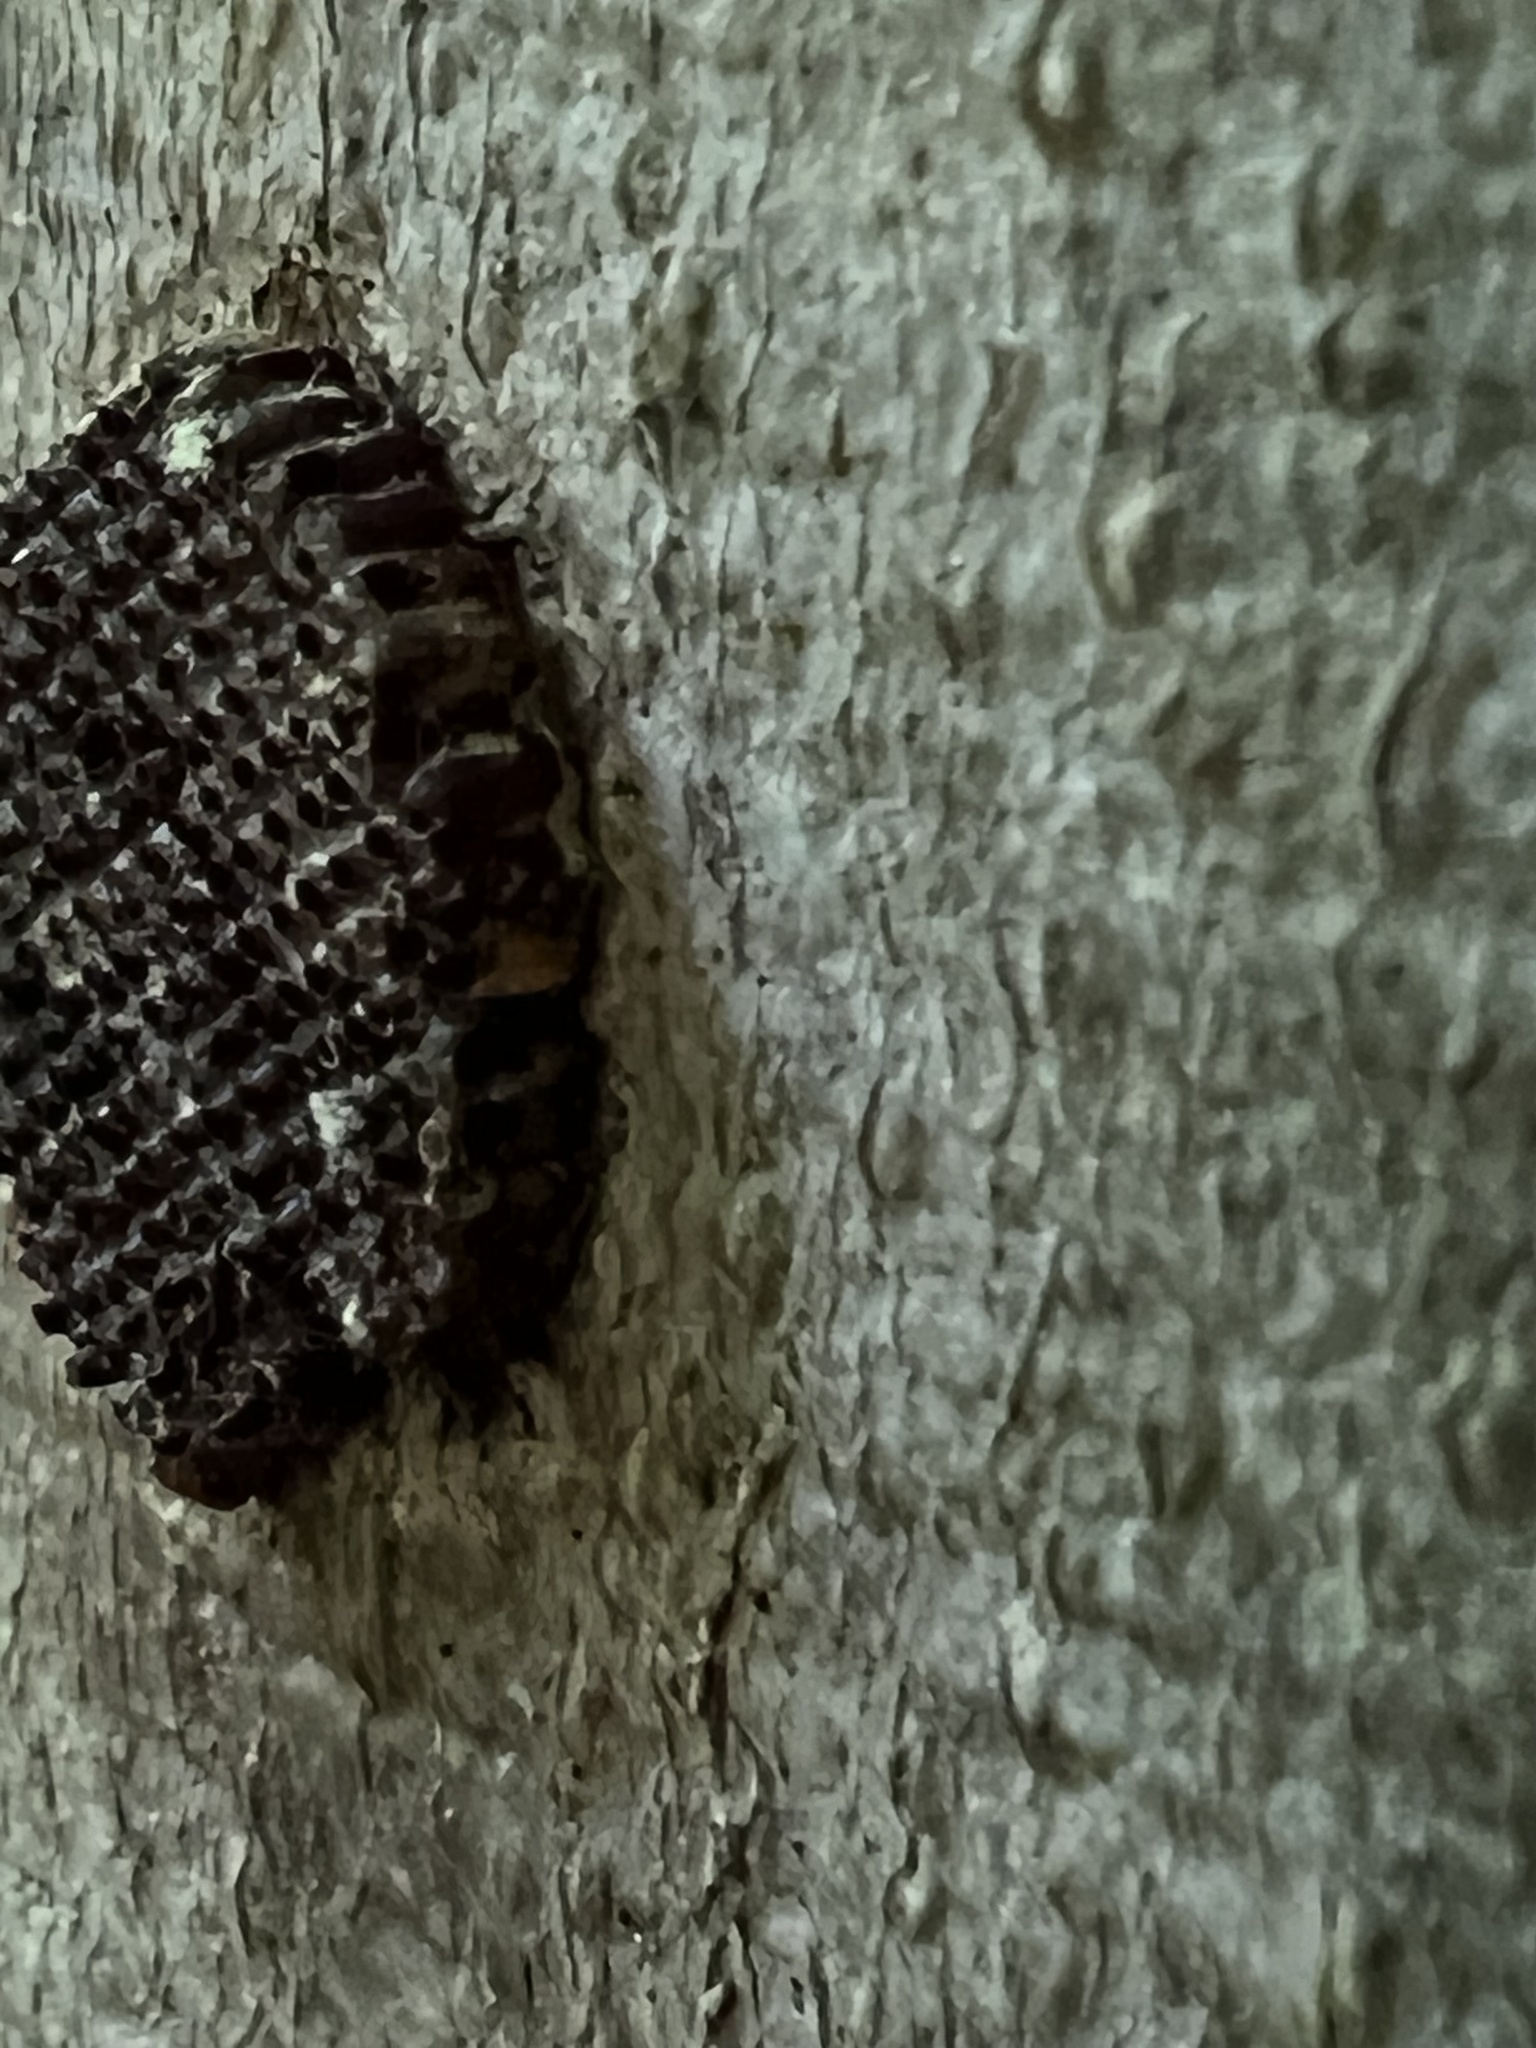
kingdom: Animalia
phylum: Arthropoda
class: Insecta
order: Hemiptera
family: Reduviidae
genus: Arilus
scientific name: Arilus cristatus
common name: North american wheel bug
